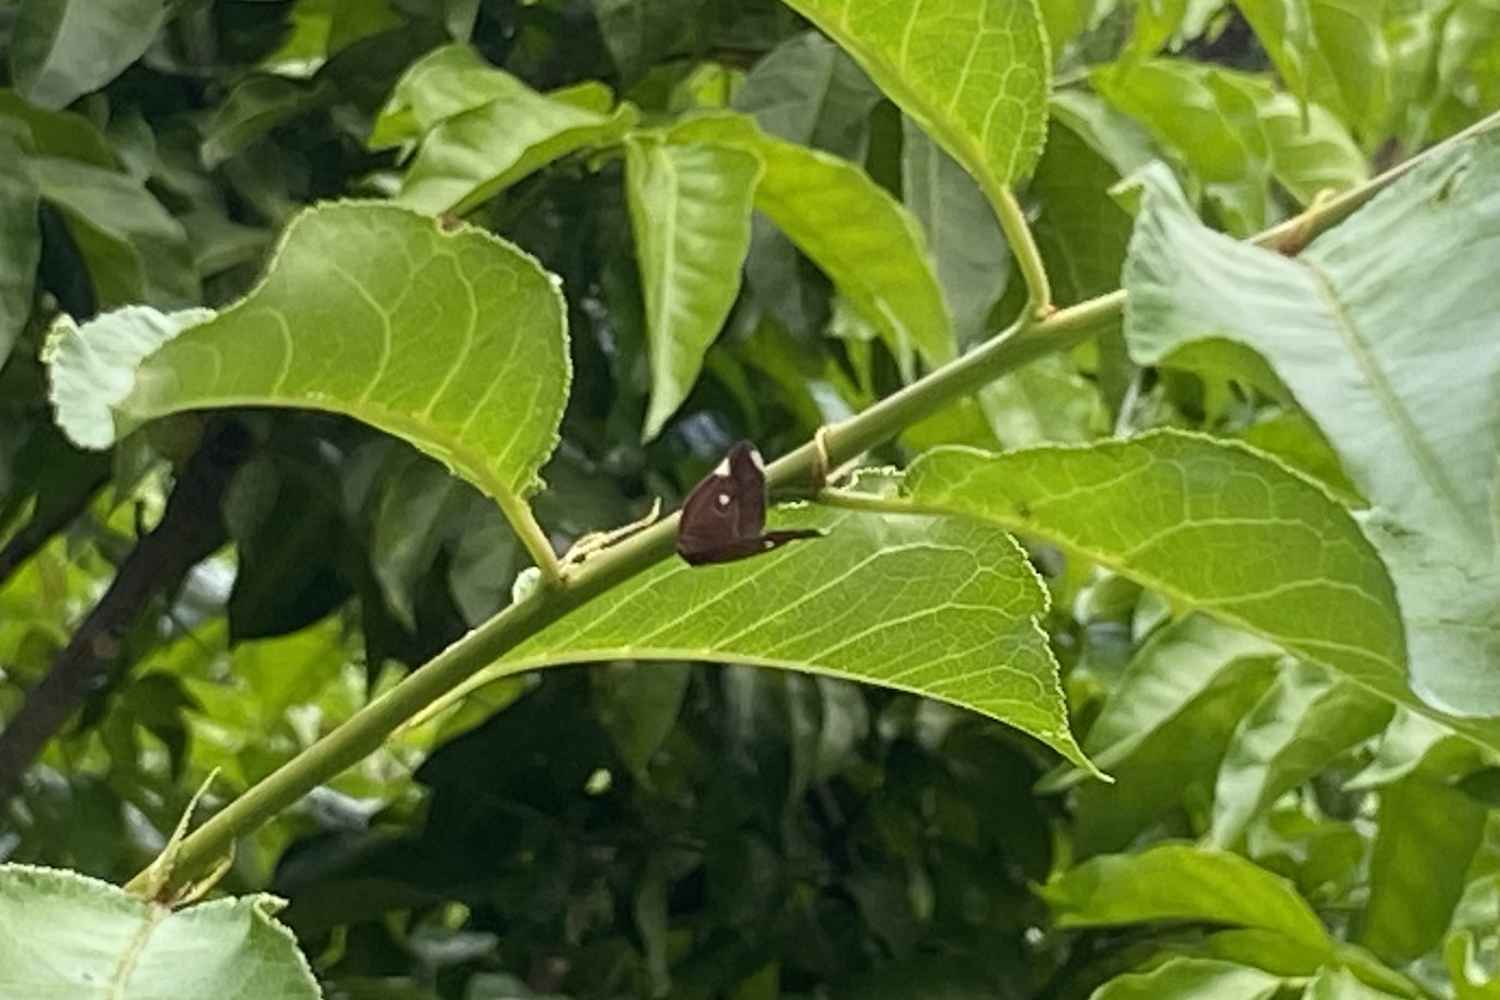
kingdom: Animalia
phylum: Arthropoda
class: Insecta
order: Hemiptera
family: Ricaniidae
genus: Ricania
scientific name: Ricania guttata
